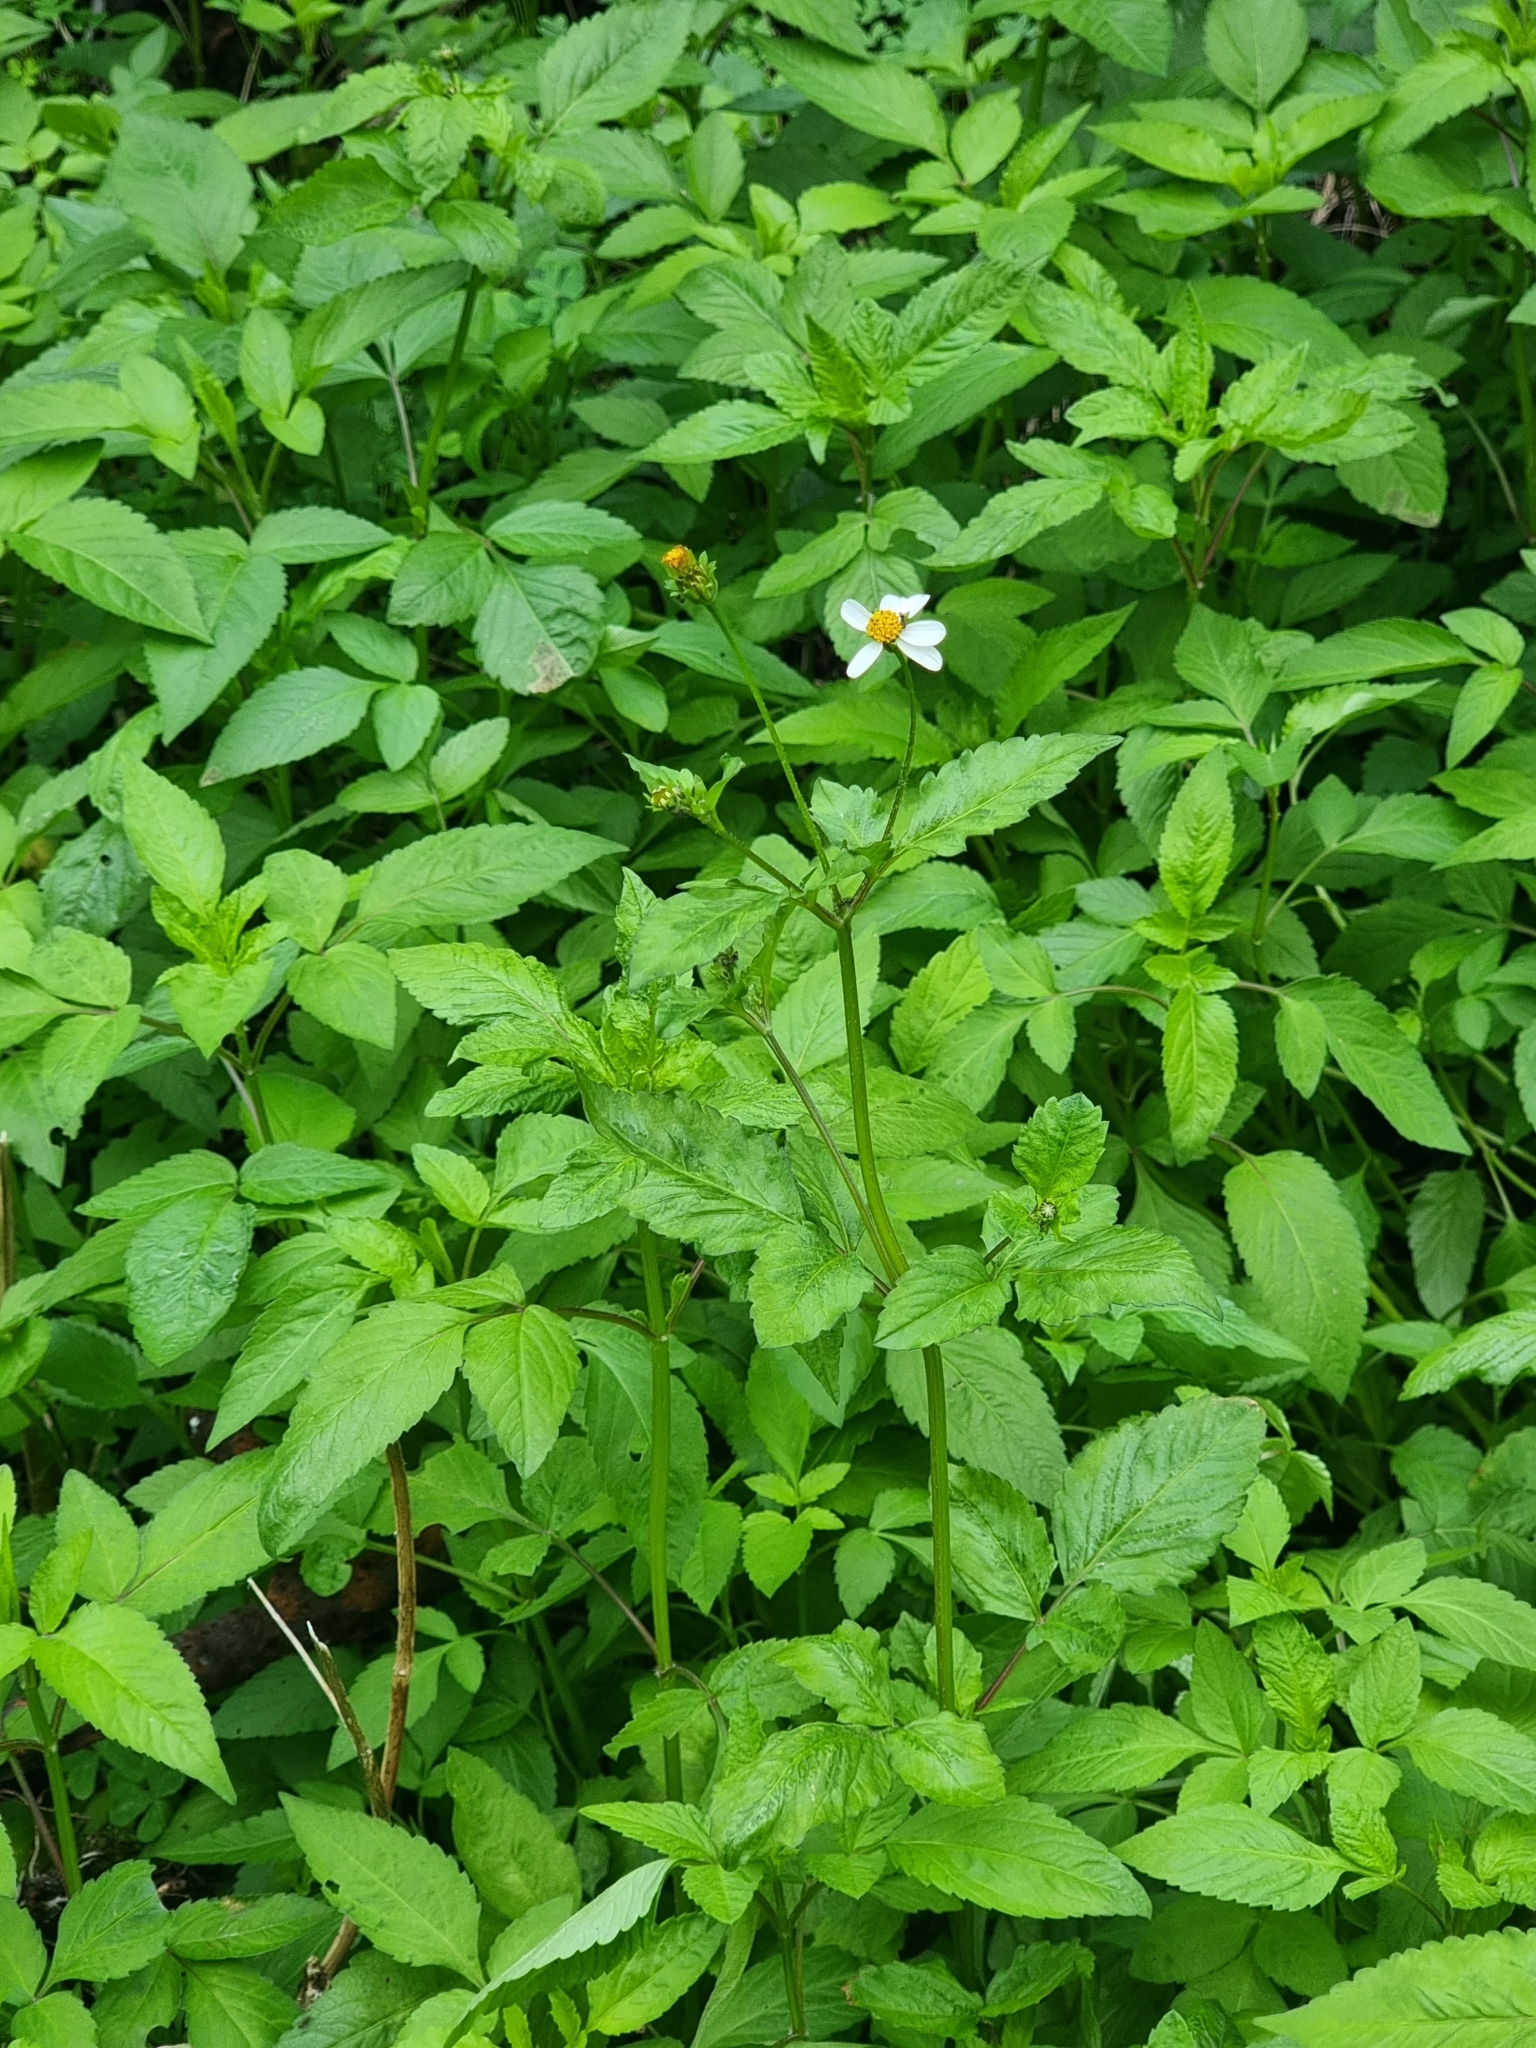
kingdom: Plantae
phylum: Tracheophyta
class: Magnoliopsida
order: Asterales
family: Asteraceae
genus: Bidens
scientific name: Bidens pilosa
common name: Black-jack
